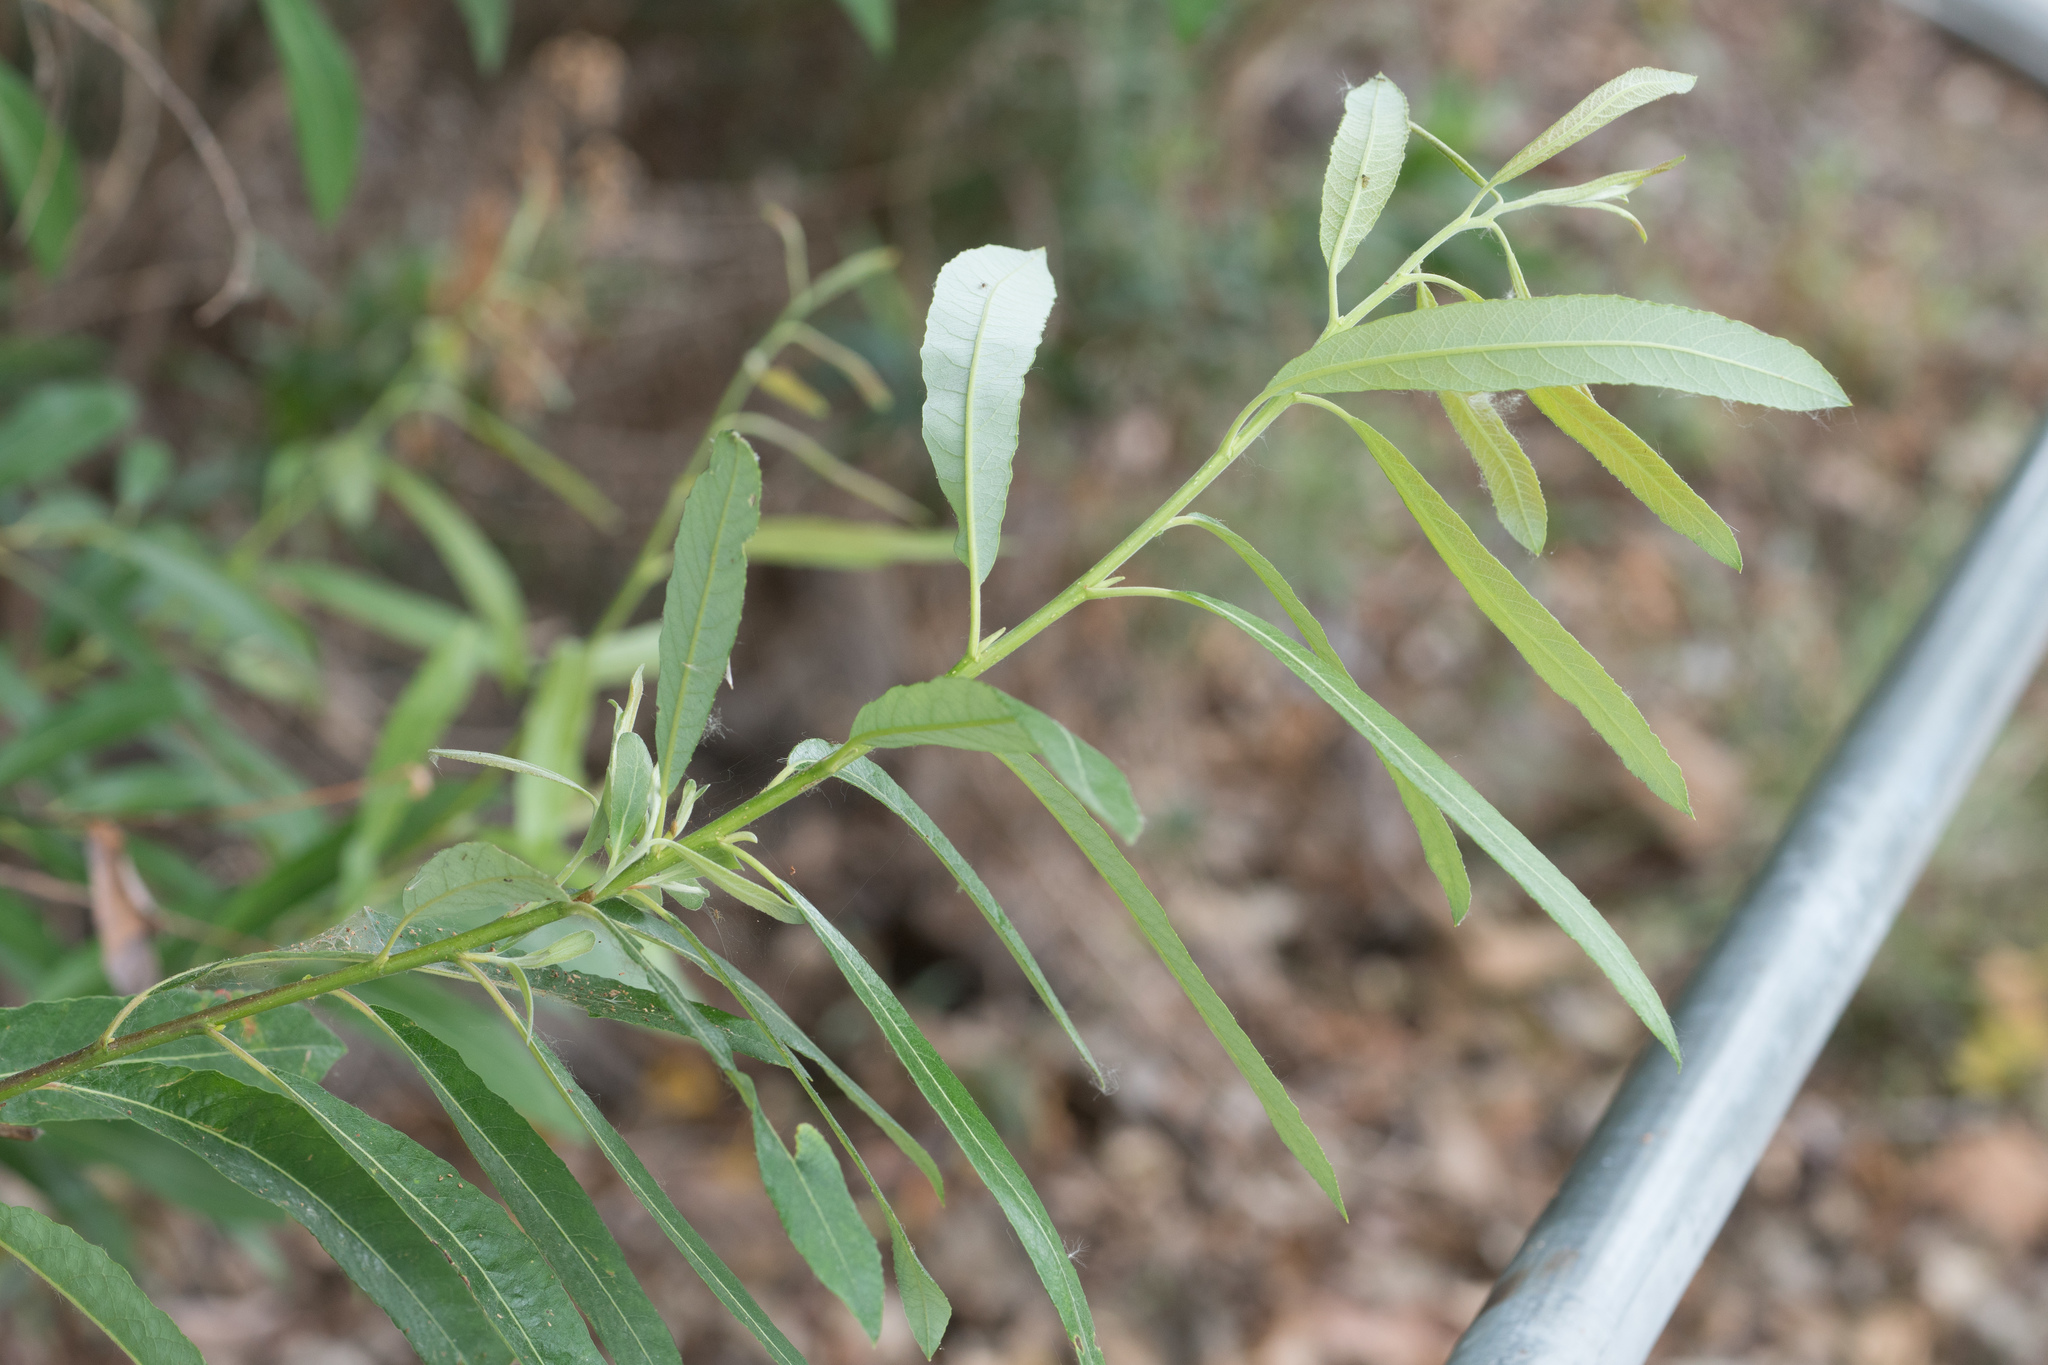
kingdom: Plantae
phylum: Tracheophyta
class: Magnoliopsida
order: Malpighiales
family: Salicaceae
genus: Salix
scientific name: Salix lasiolepis
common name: Arroyo willow
